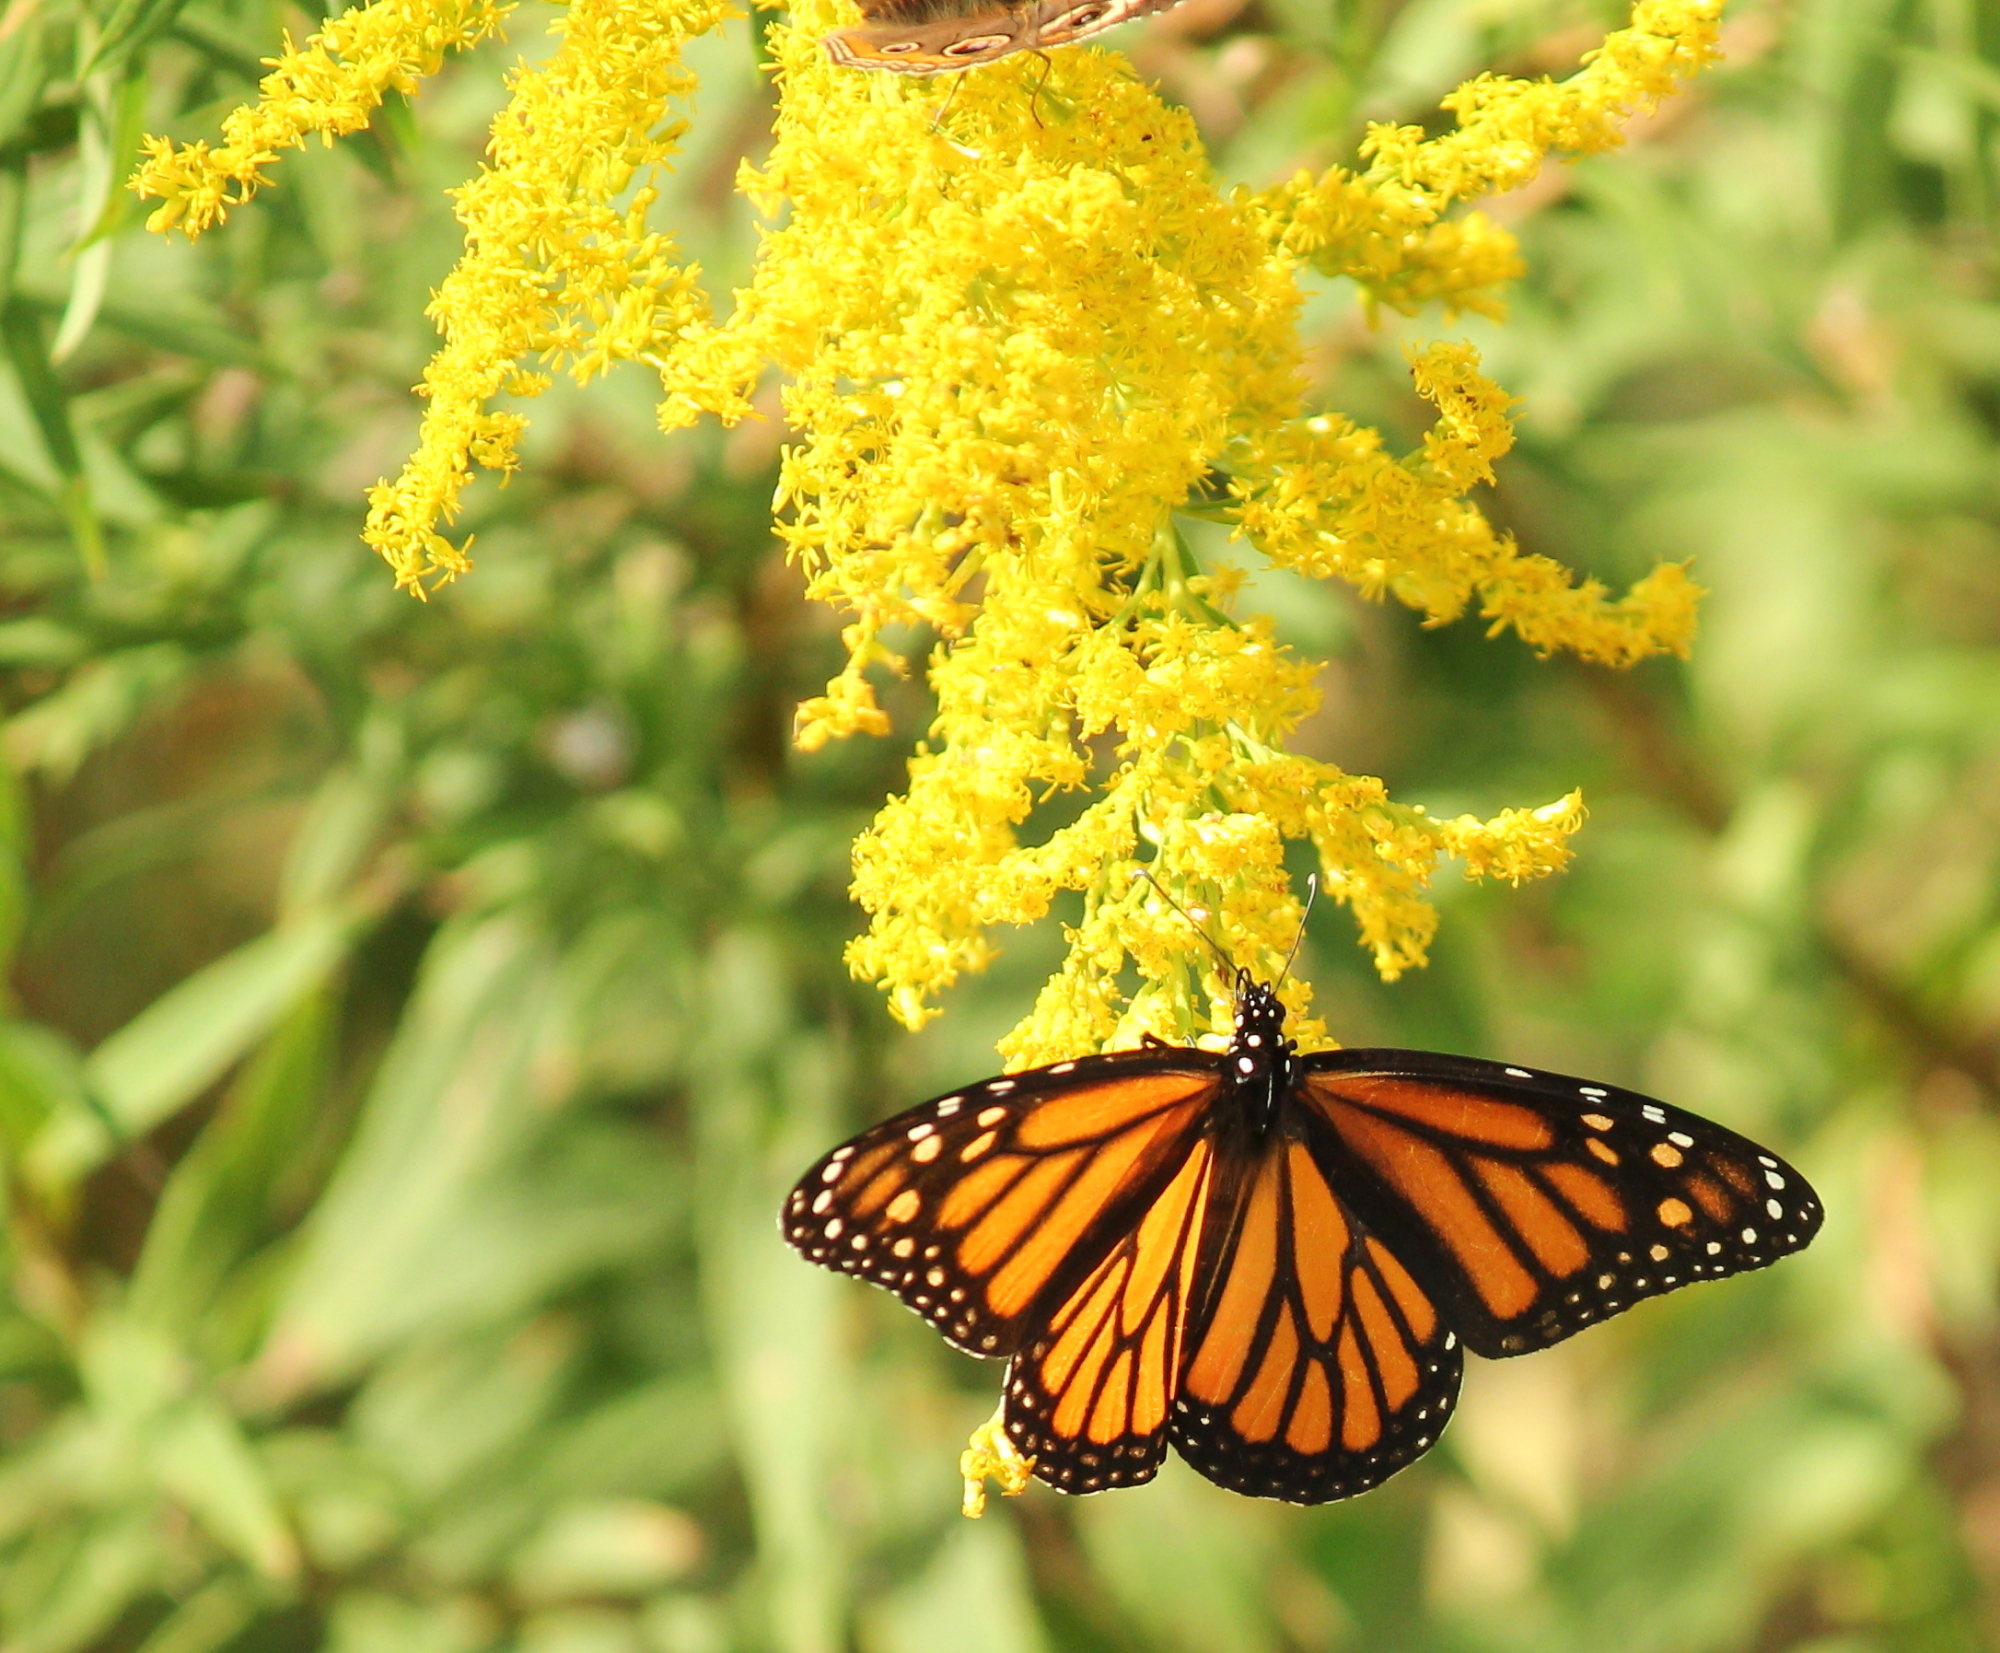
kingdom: Animalia
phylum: Arthropoda
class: Insecta
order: Lepidoptera
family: Nymphalidae
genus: Danaus
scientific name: Danaus plexippus
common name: Monarch
